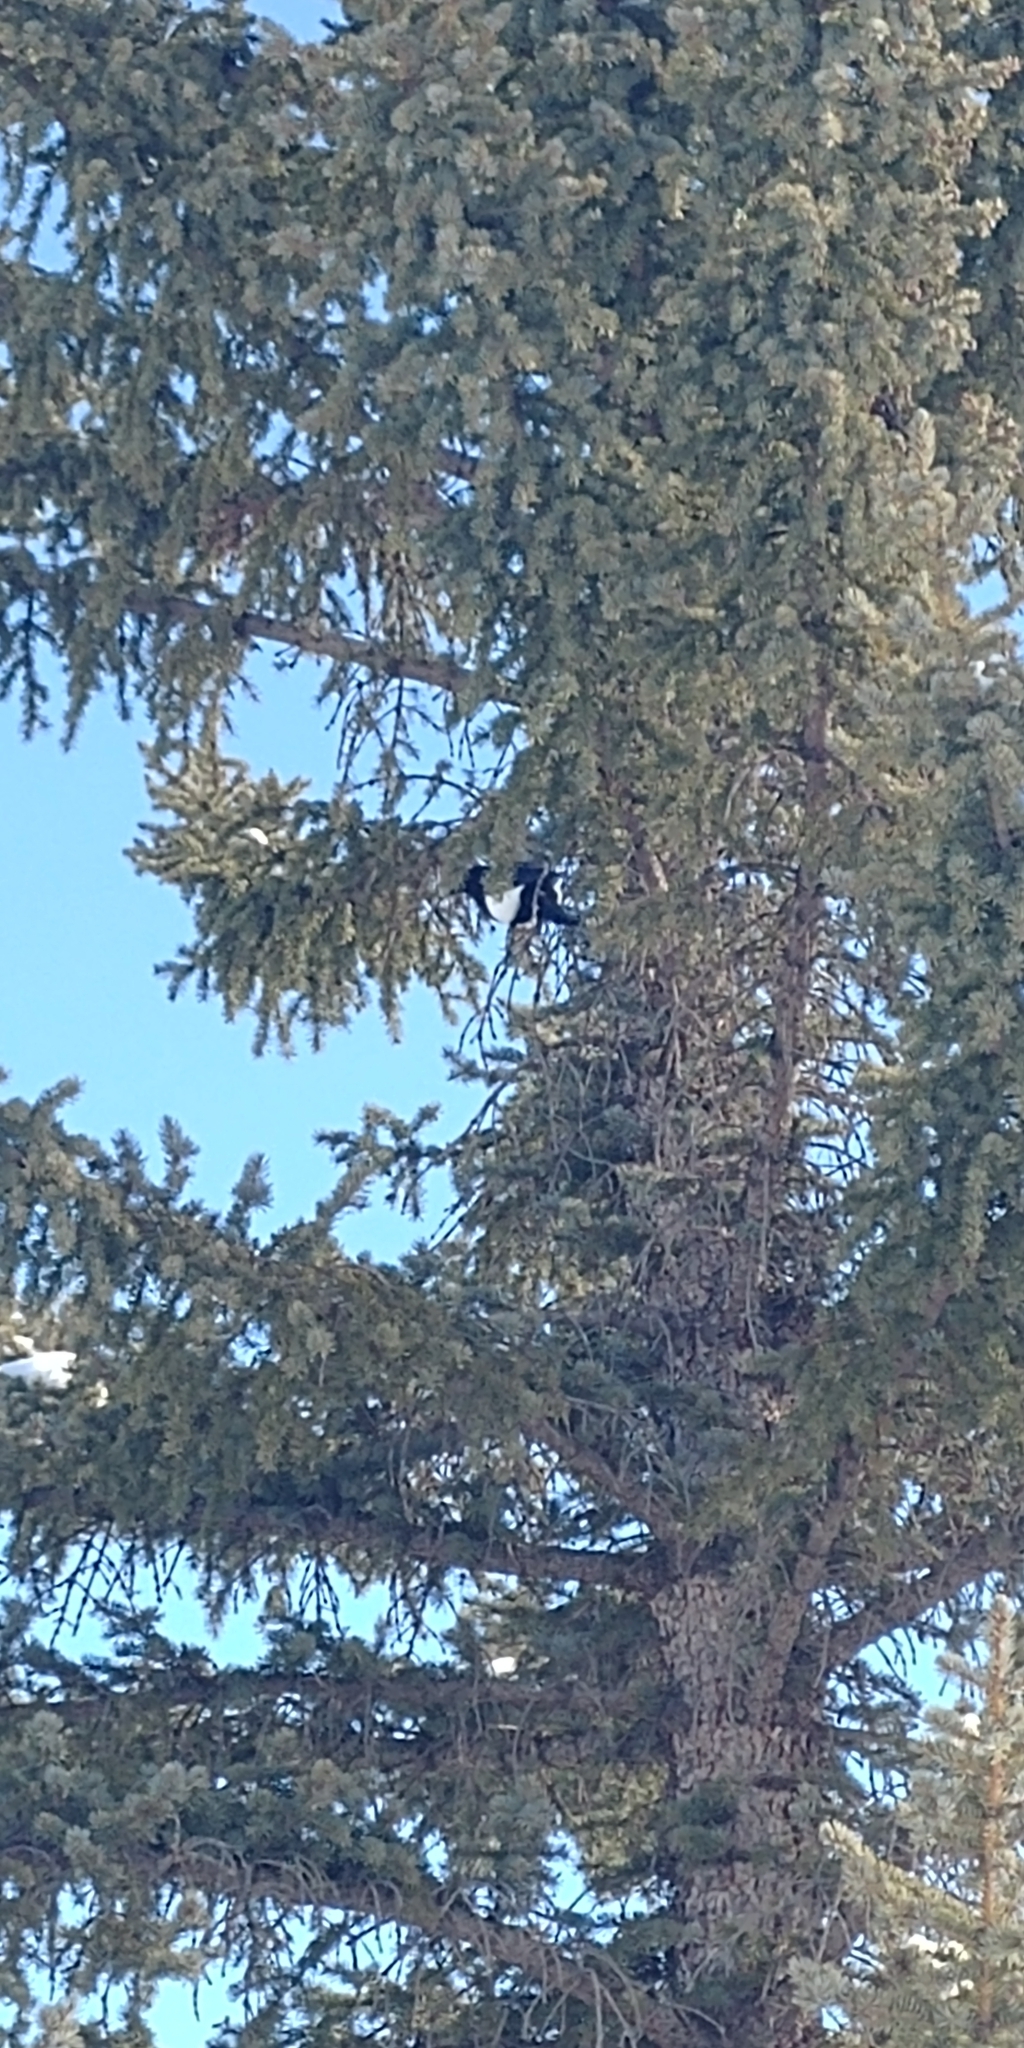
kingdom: Animalia
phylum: Chordata
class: Aves
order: Passeriformes
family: Corvidae
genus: Pica
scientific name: Pica hudsonia
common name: Black-billed magpie
